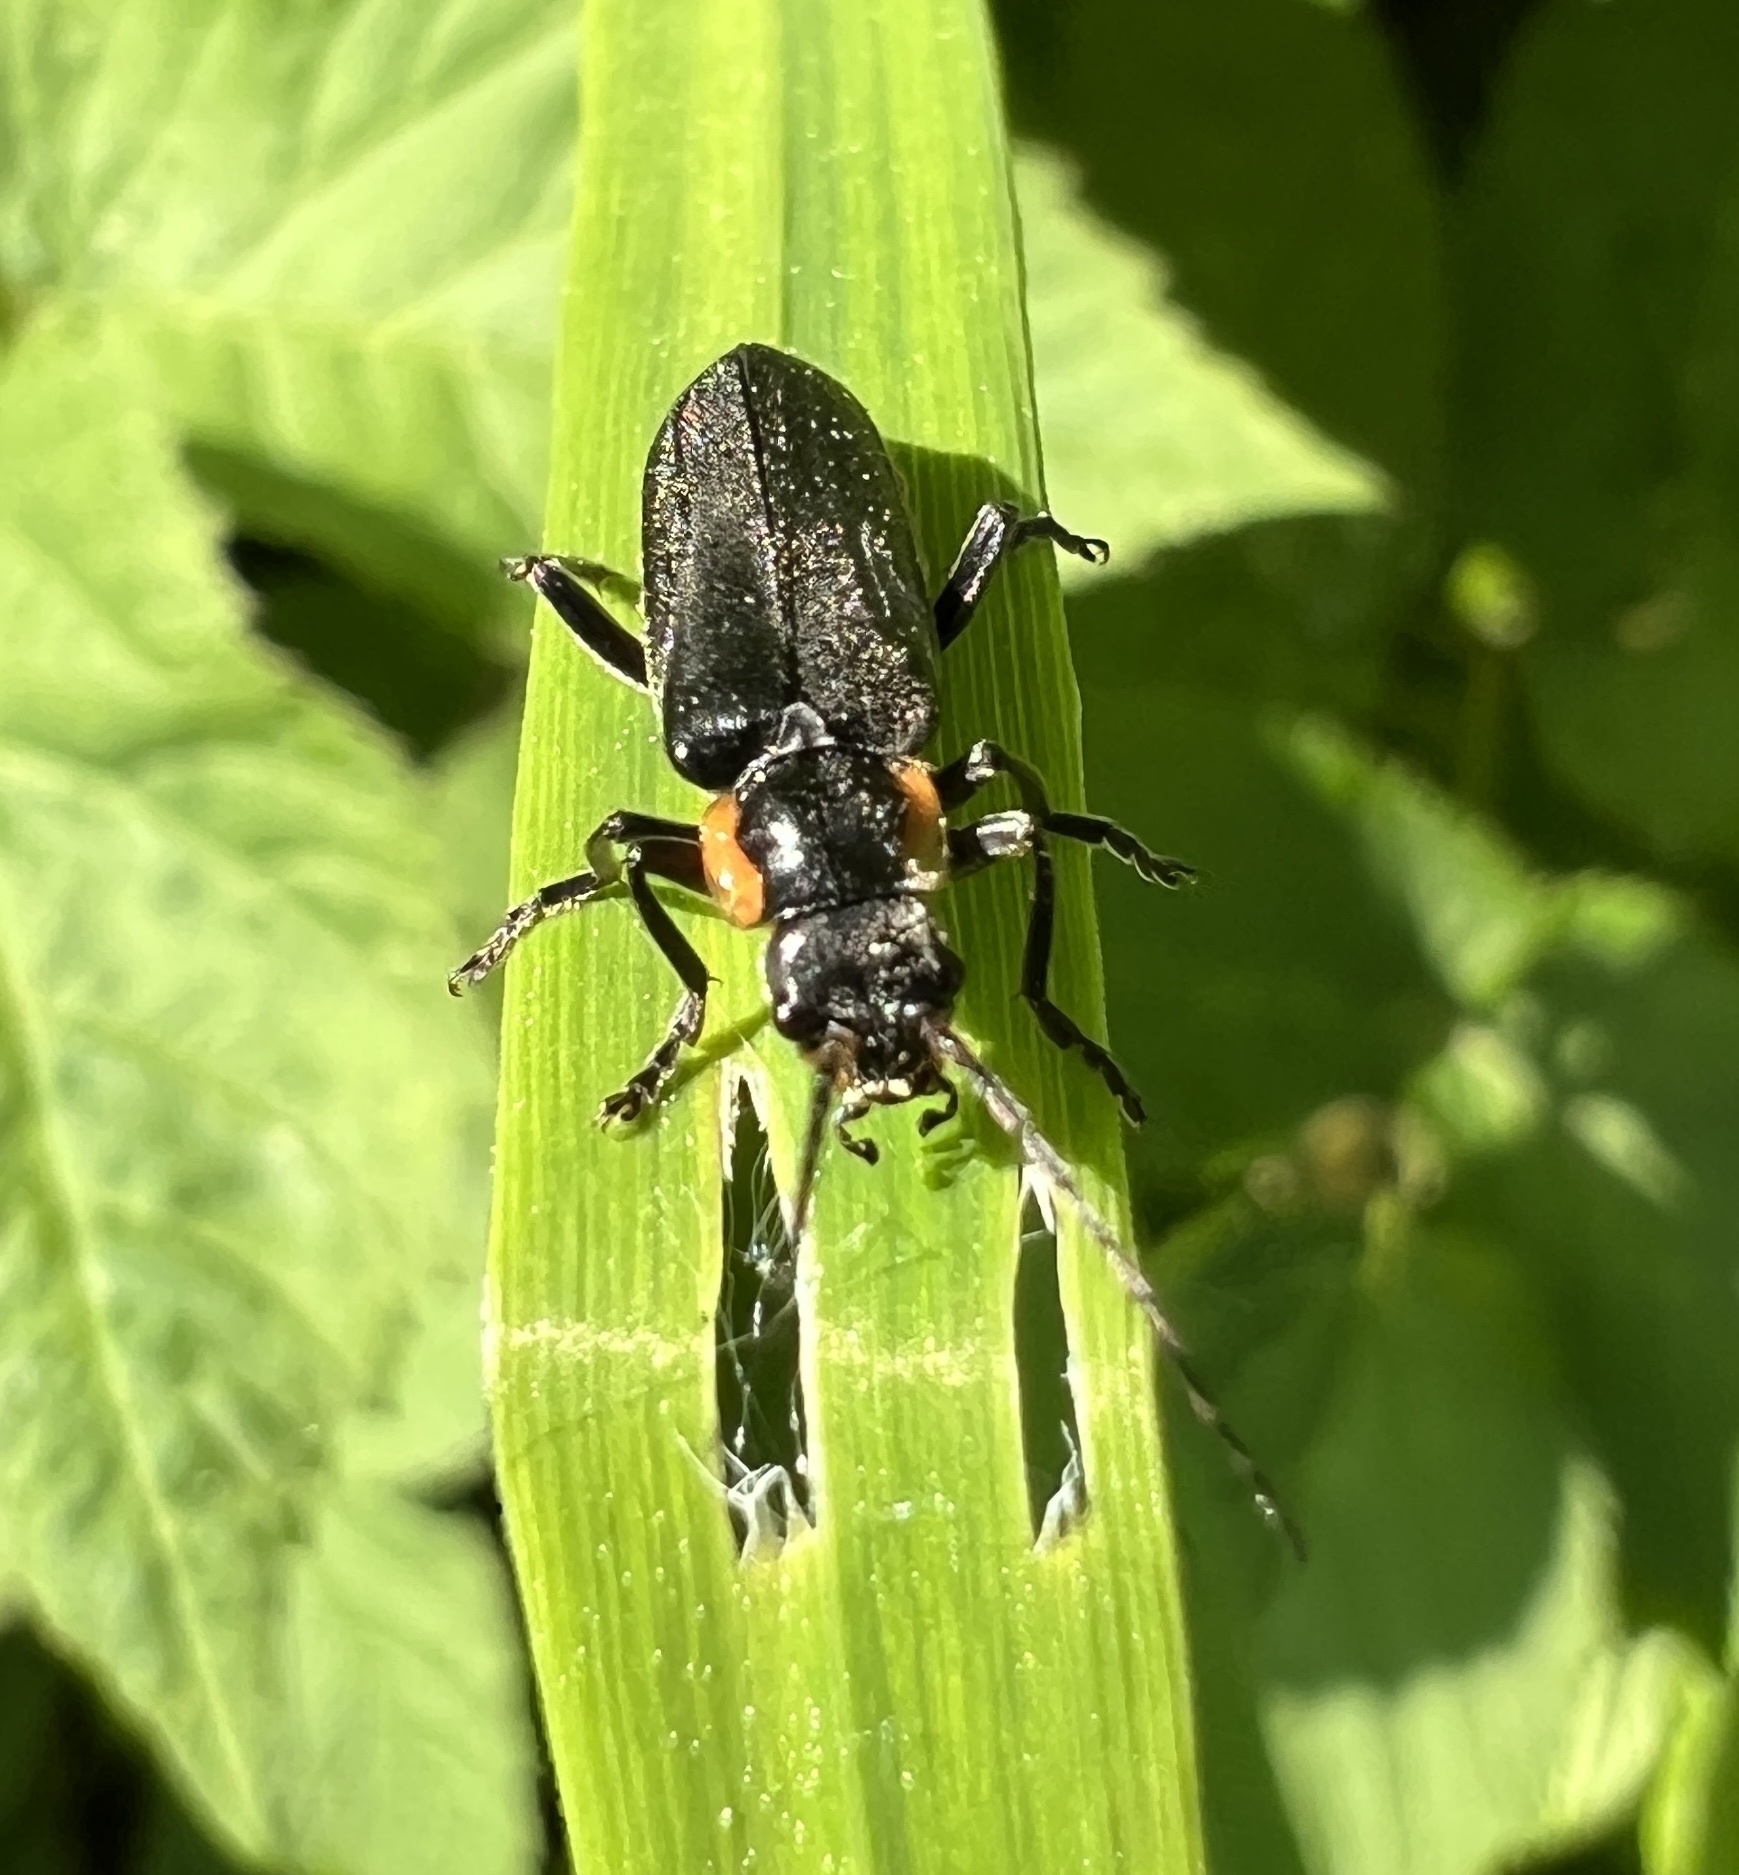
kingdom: Animalia
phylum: Arthropoda
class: Insecta
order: Coleoptera
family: Cantharidae
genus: Cantharis
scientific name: Cantharis obscura
